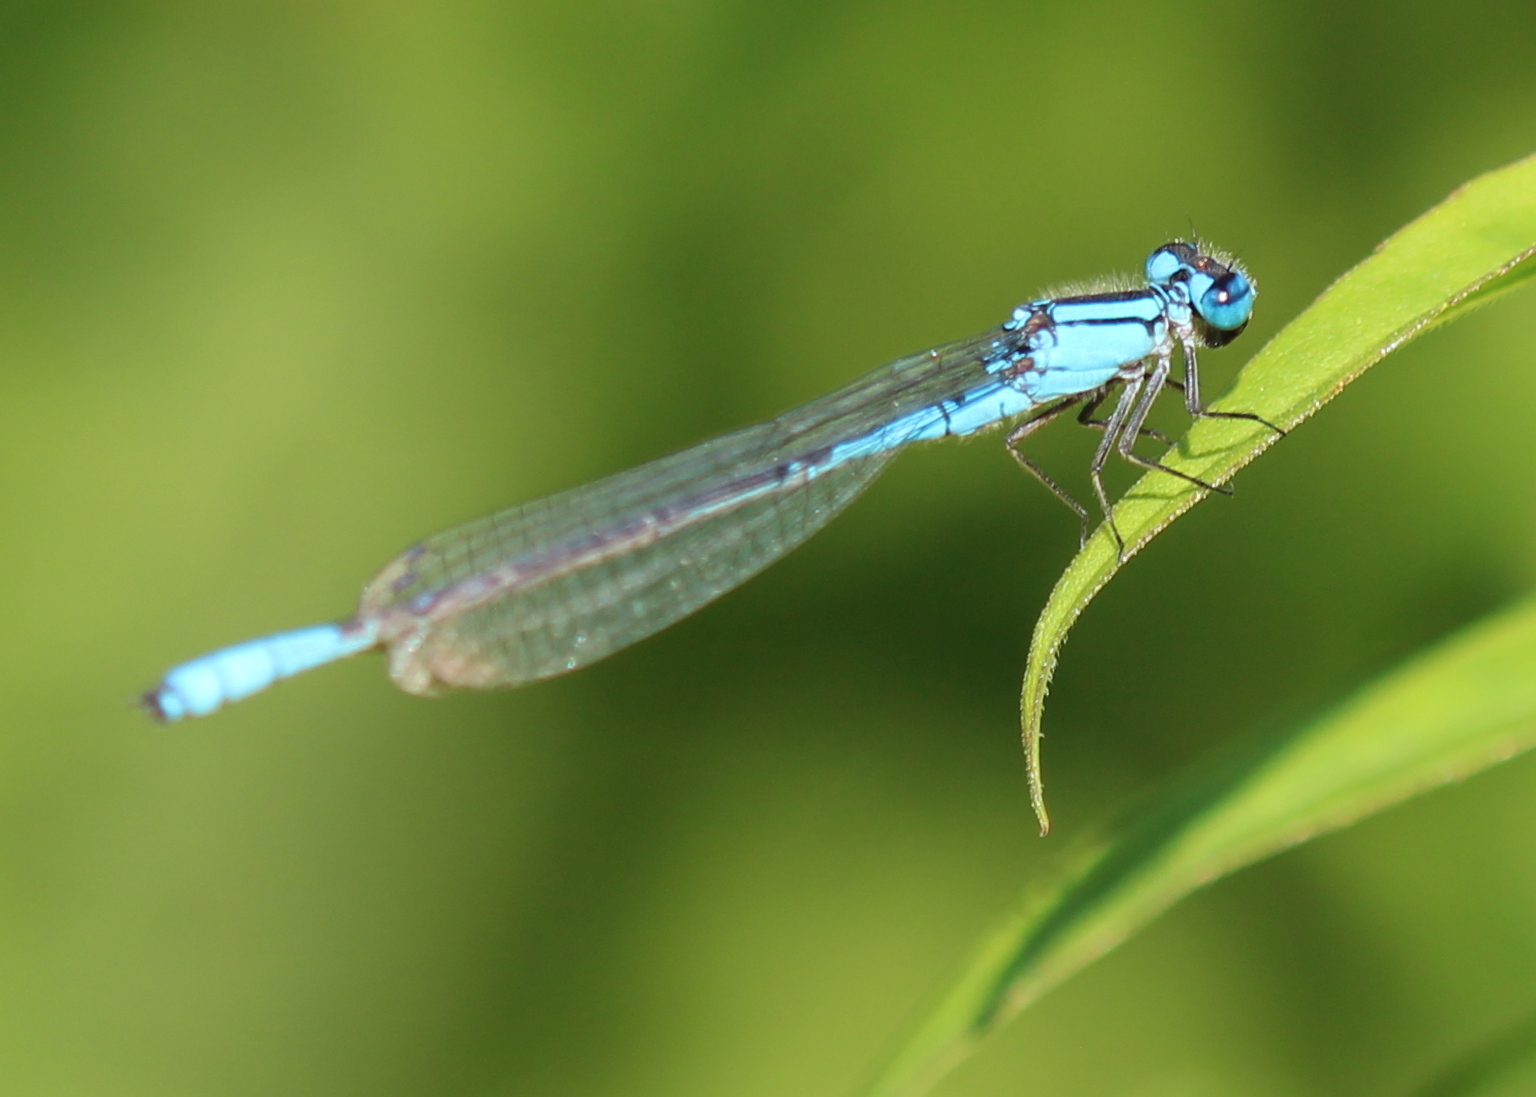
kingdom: Animalia
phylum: Arthropoda
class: Insecta
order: Odonata
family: Coenagrionidae
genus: Enallagma
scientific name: Enallagma aspersum
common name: Azure bluet
